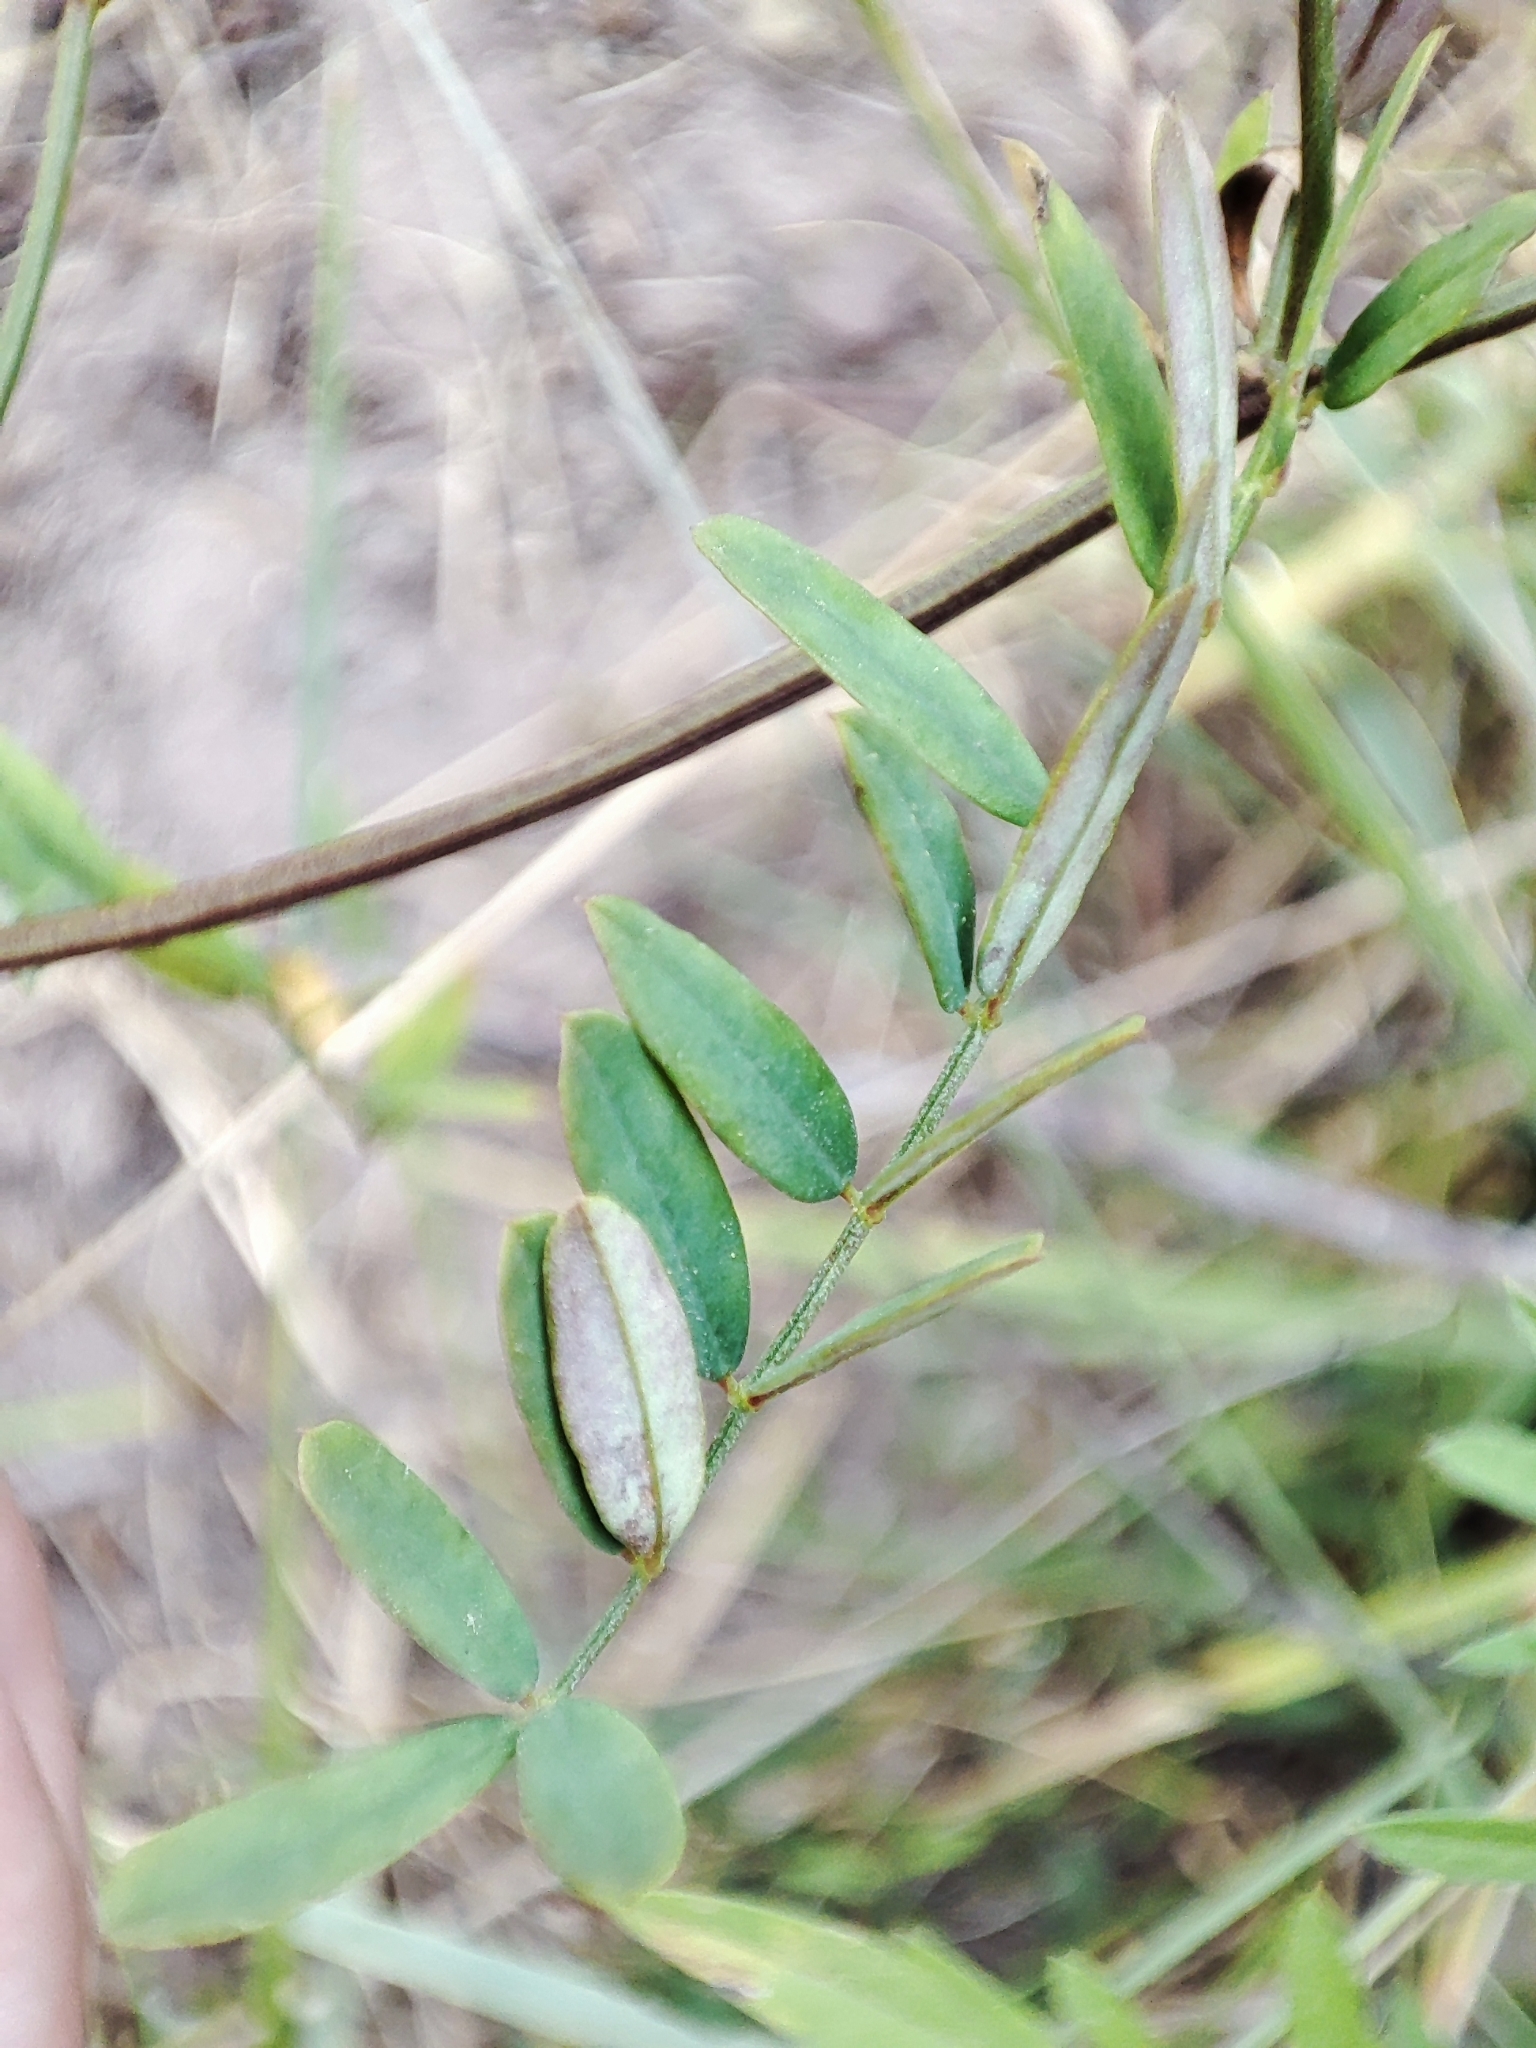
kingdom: Plantae
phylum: Tracheophyta
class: Magnoliopsida
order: Fabales
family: Fabaceae
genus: Coronilla
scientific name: Coronilla varia
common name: Crownvetch
